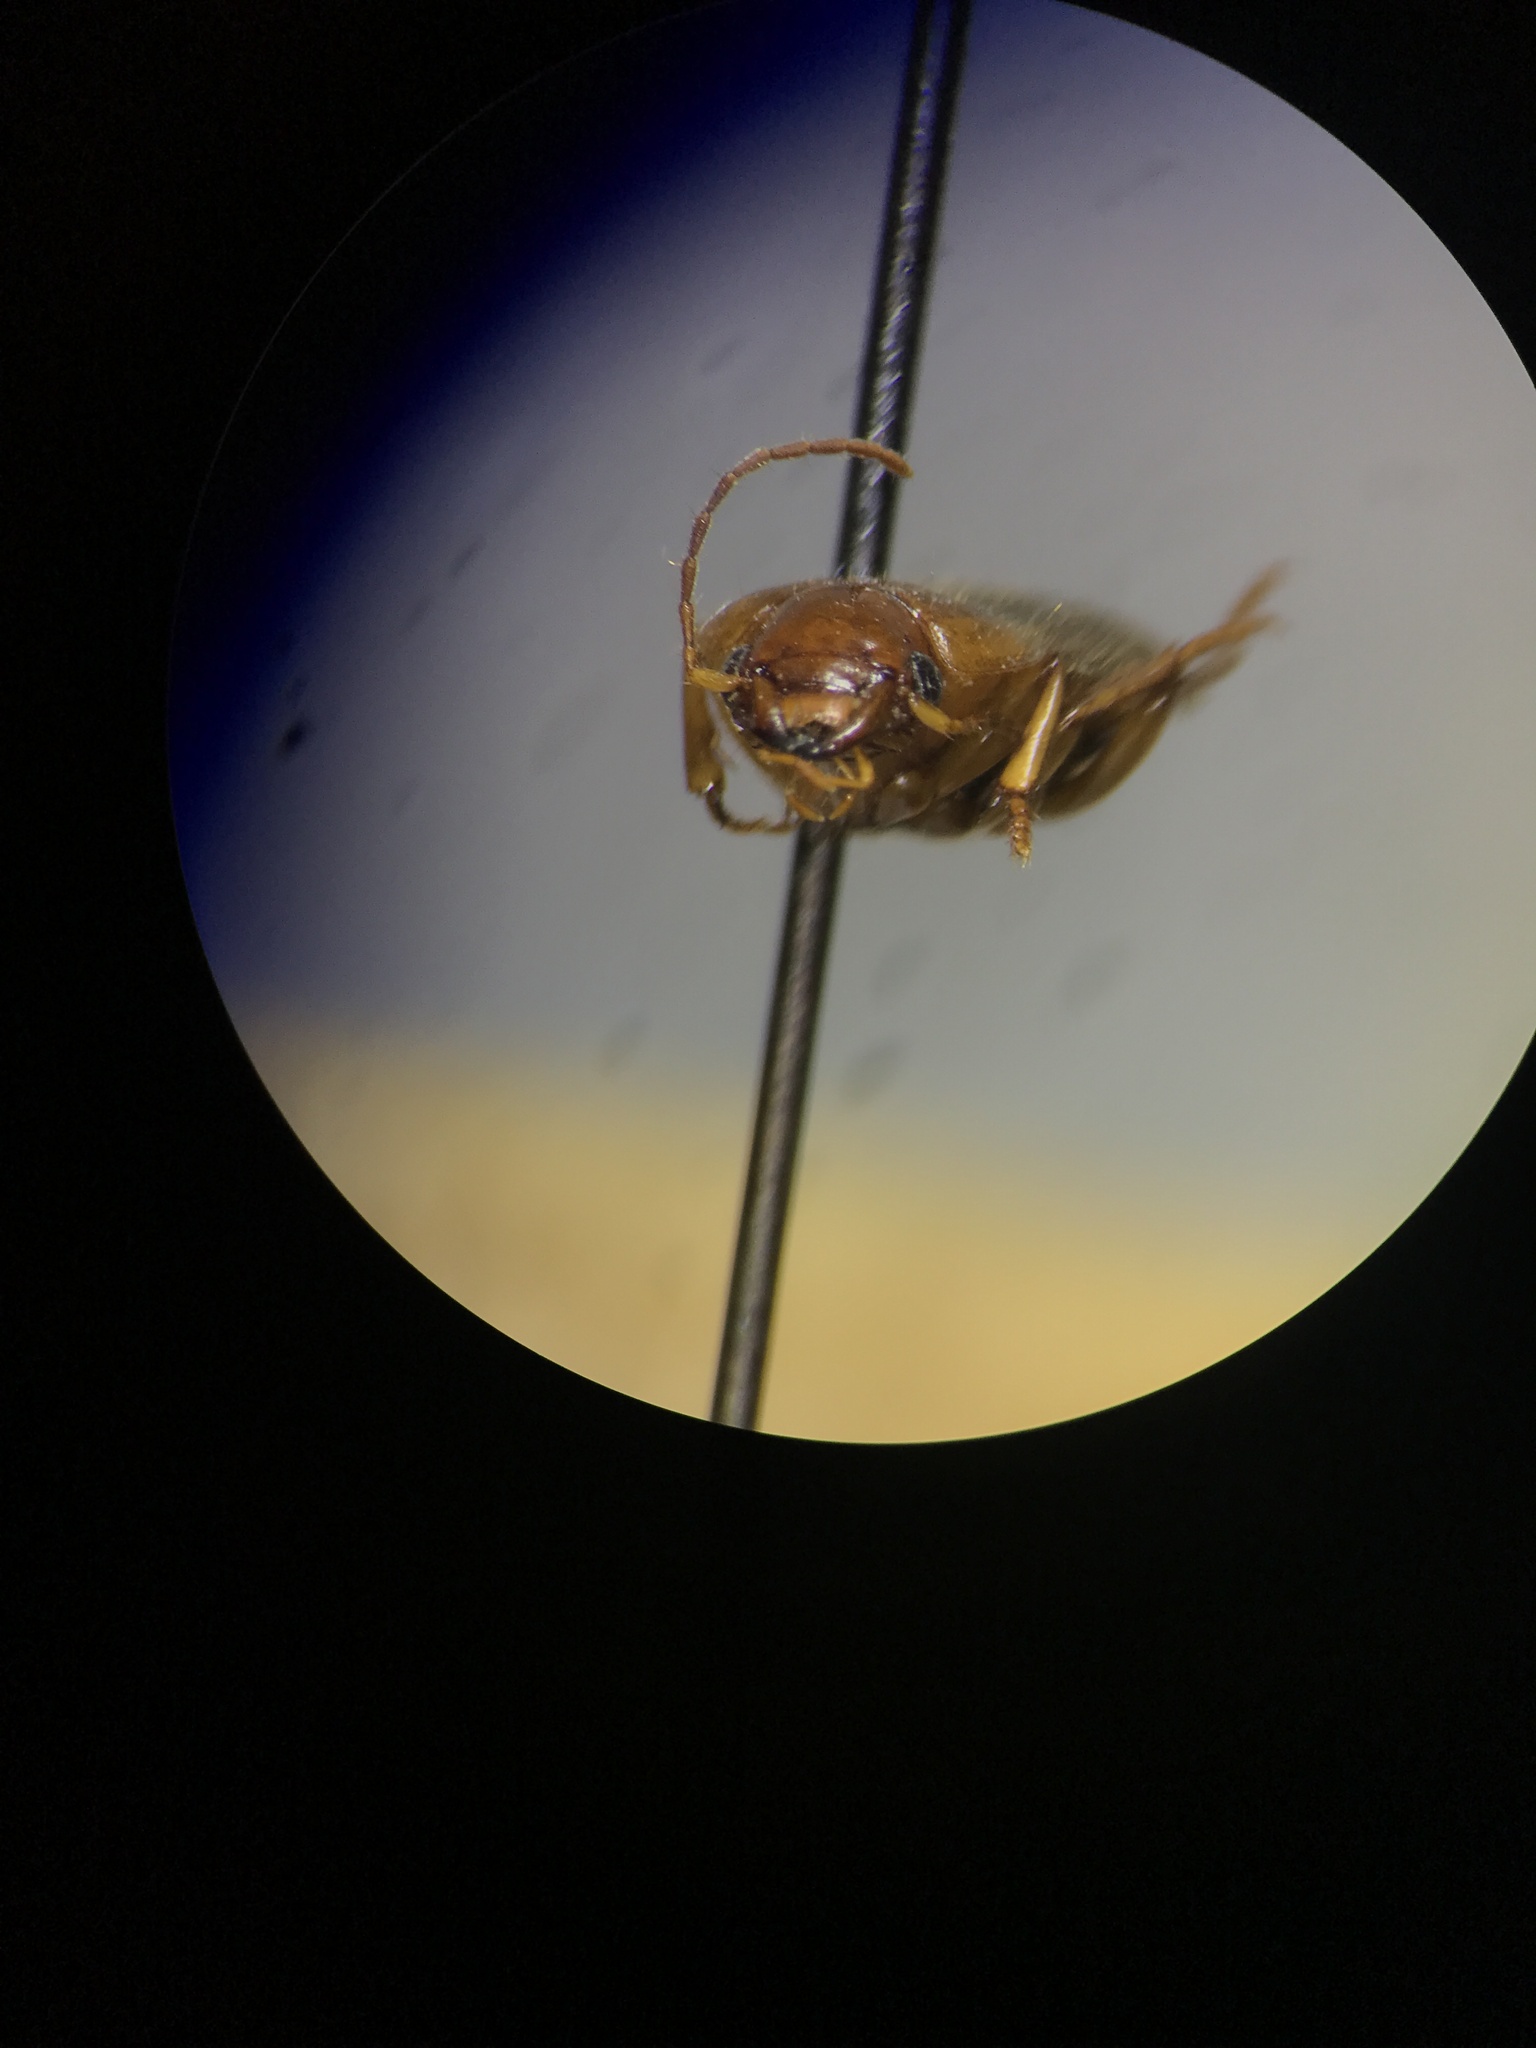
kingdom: Animalia
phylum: Arthropoda
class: Insecta
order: Coleoptera
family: Carabidae
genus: Amphasia
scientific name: Amphasia interstitialis
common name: Red-headed ground beetle
